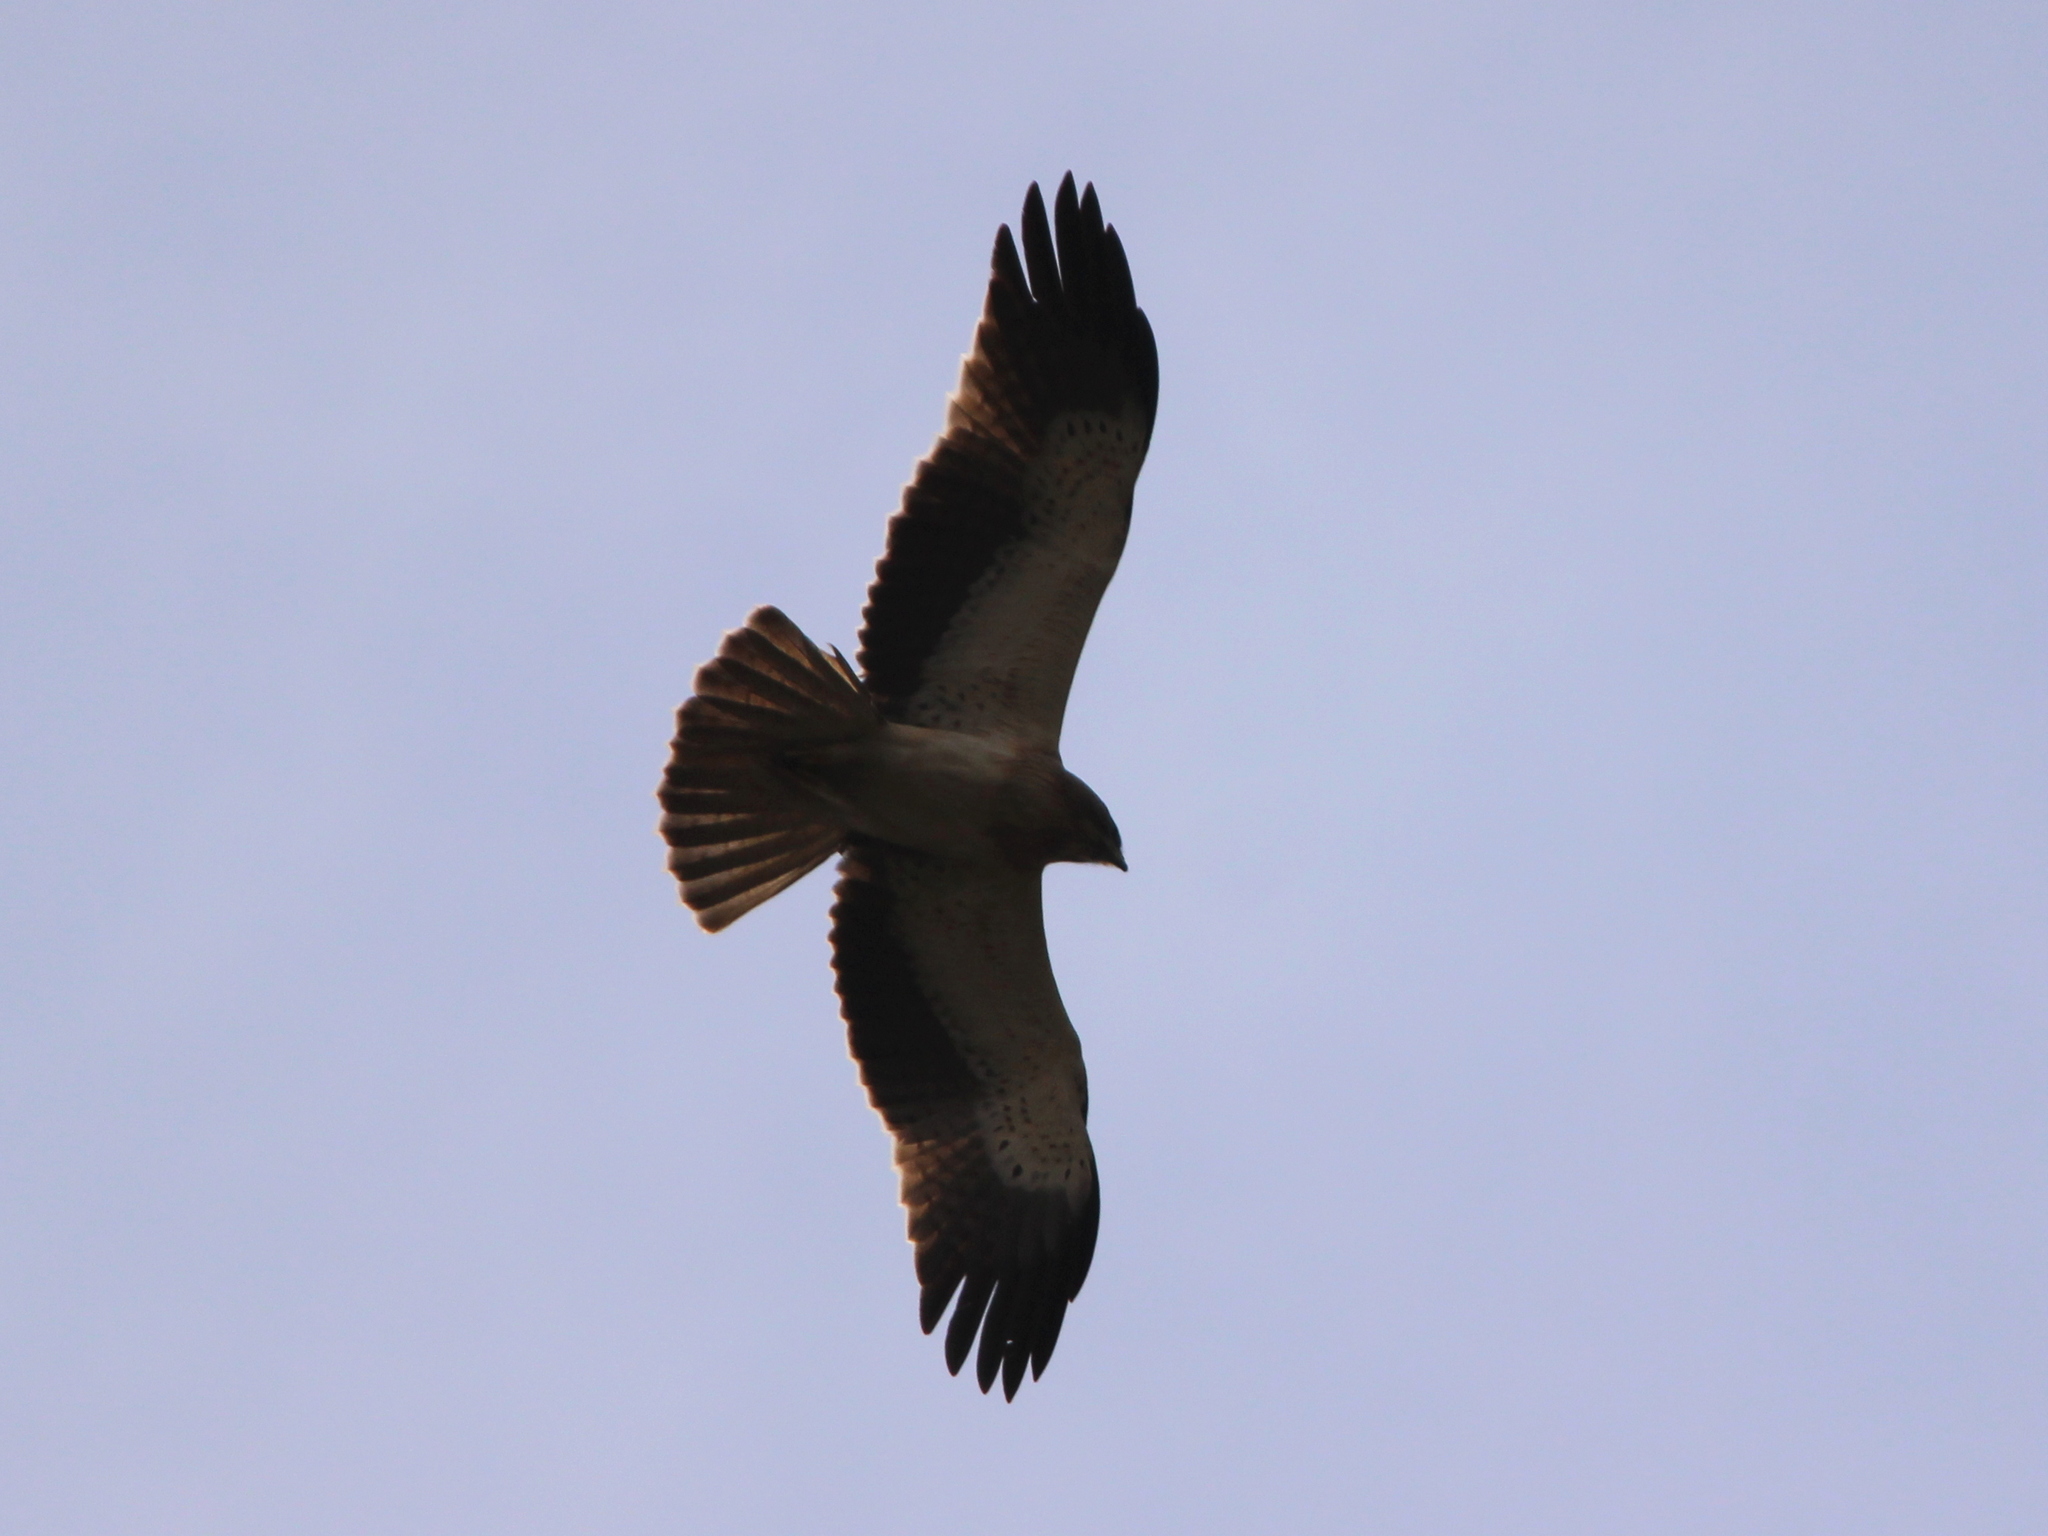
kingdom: Animalia
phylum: Chordata
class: Aves
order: Accipitriformes
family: Accipitridae
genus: Hieraaetus
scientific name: Hieraaetus pennatus
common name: Booted eagle
